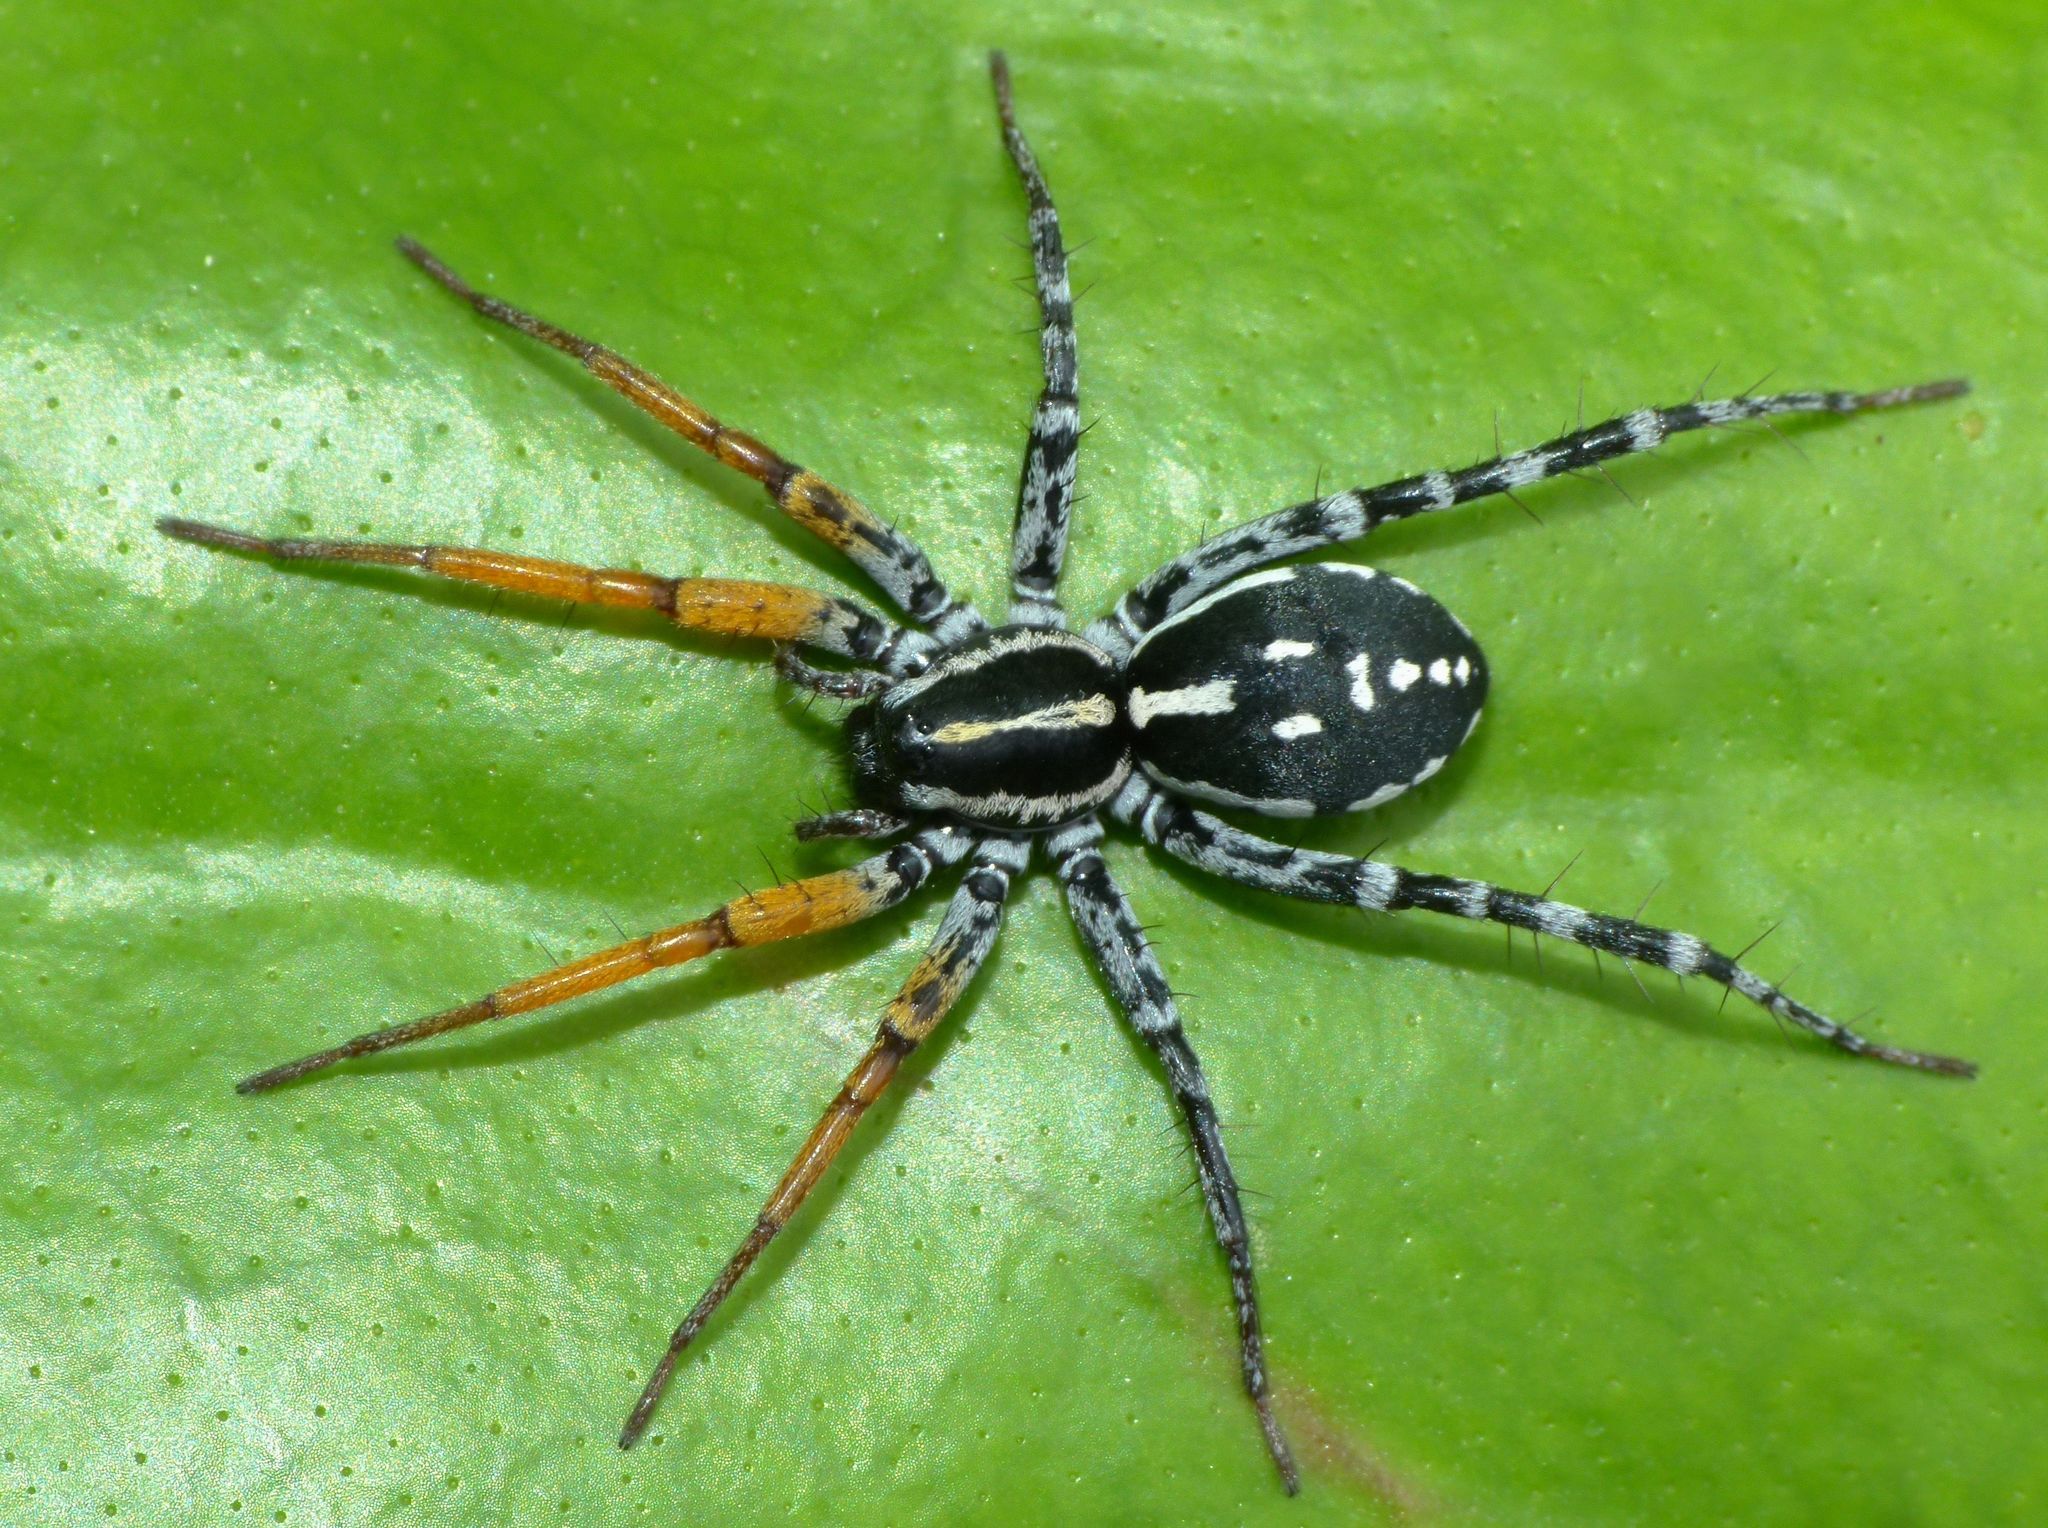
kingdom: Animalia
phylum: Arthropoda
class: Arachnida
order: Araneae
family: Corinnidae
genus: Nyssus
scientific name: Nyssus coloripes
